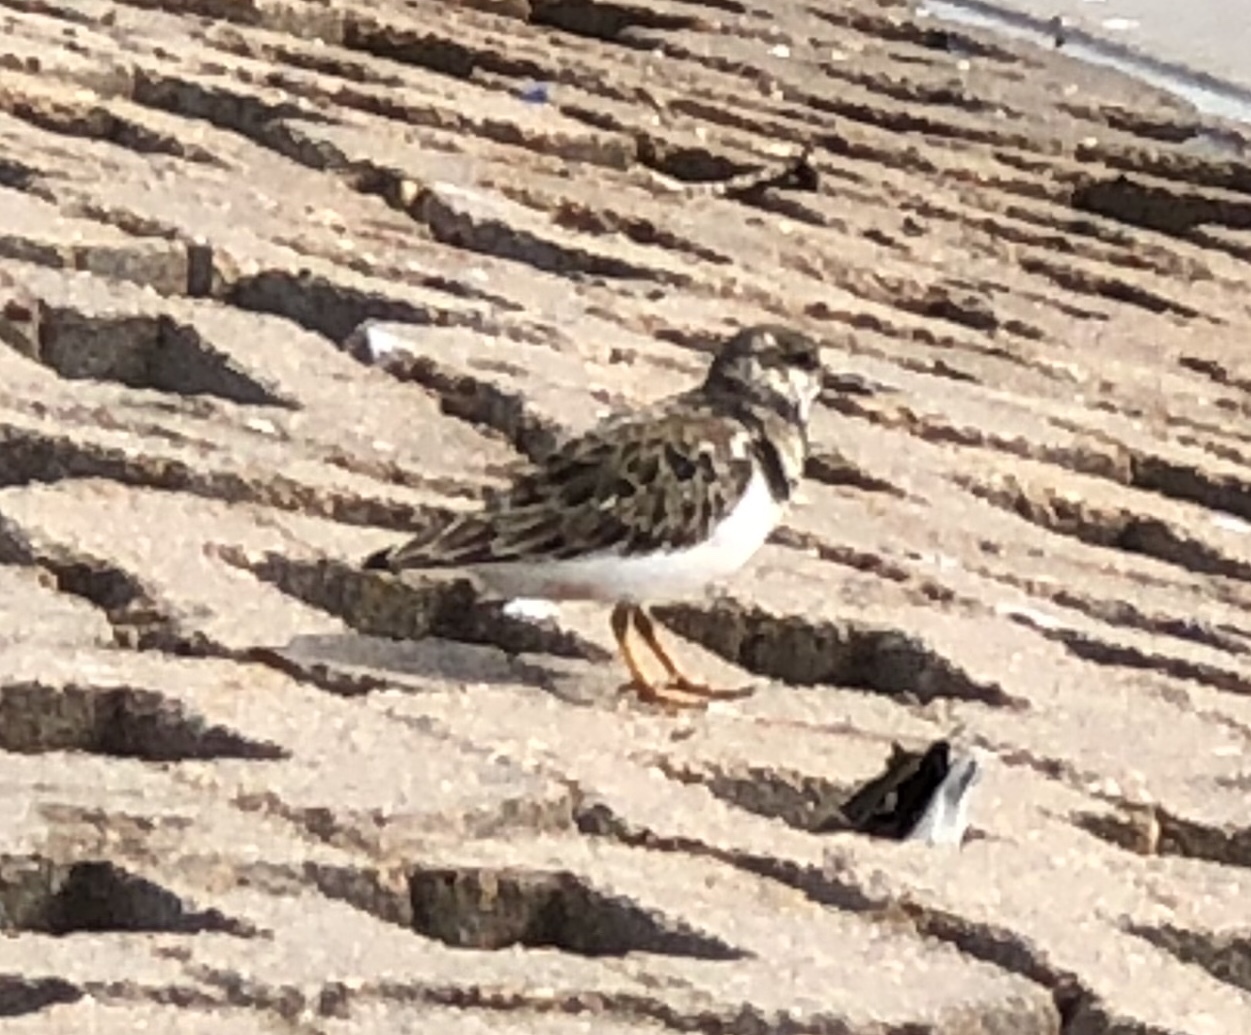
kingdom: Animalia
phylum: Chordata
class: Aves
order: Charadriiformes
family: Scolopacidae
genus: Arenaria
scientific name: Arenaria interpres
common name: Ruddy turnstone
